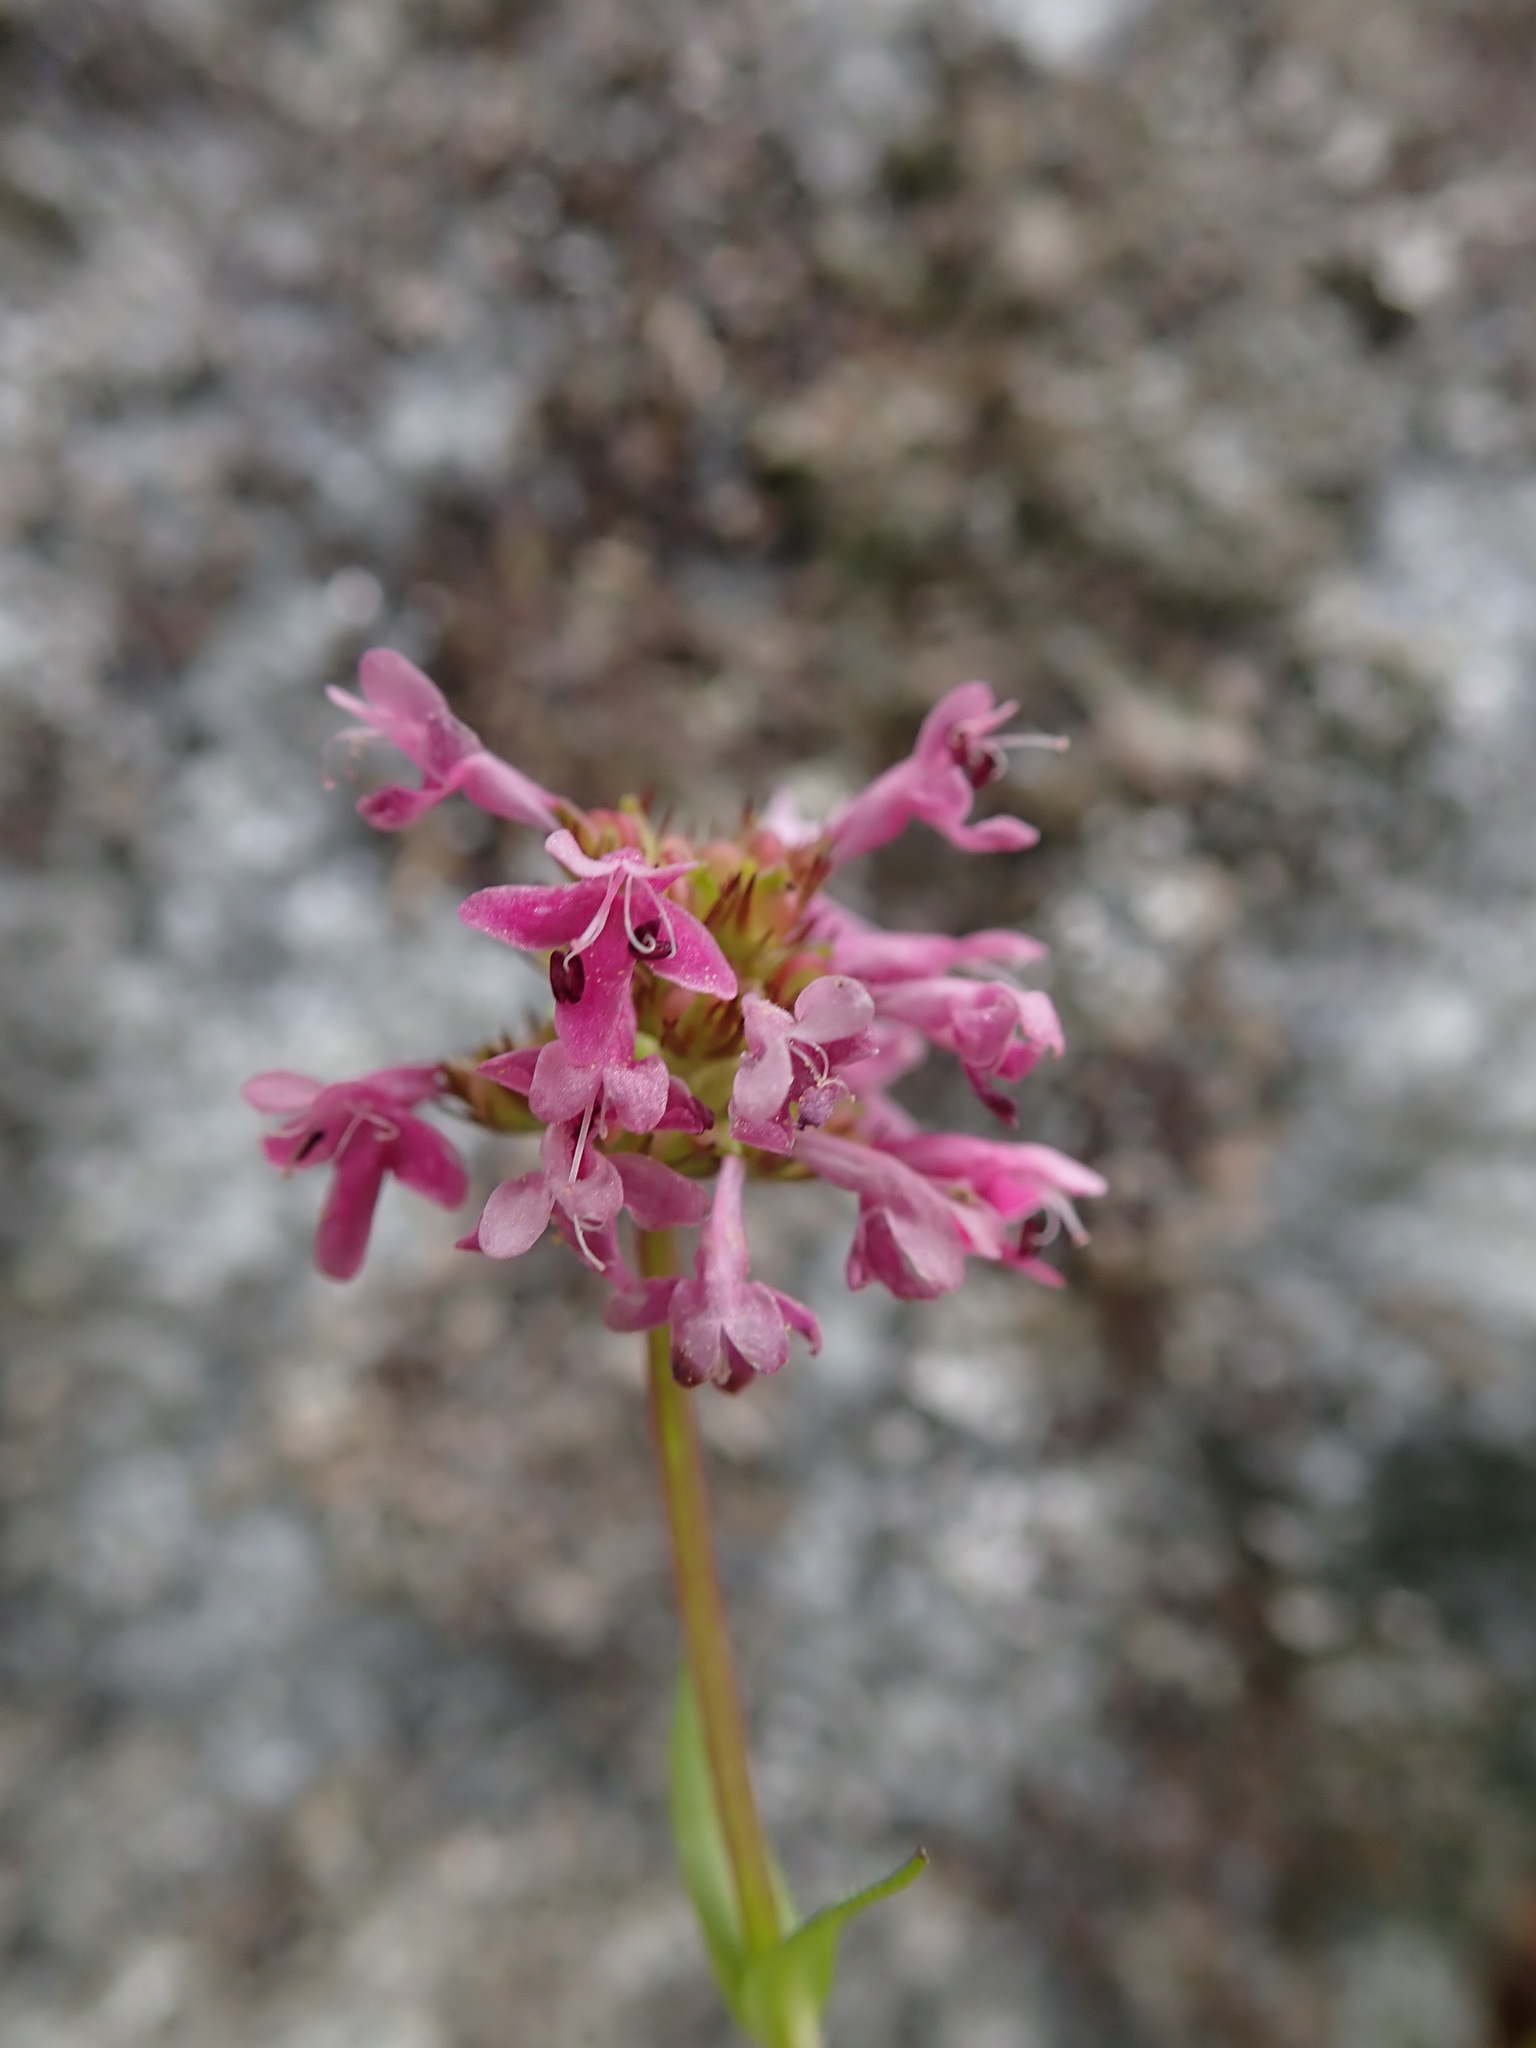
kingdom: Plantae
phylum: Tracheophyta
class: Magnoliopsida
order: Dipsacales
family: Caprifoliaceae
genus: Plectritis
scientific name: Plectritis congesta
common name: Pink plectritis
